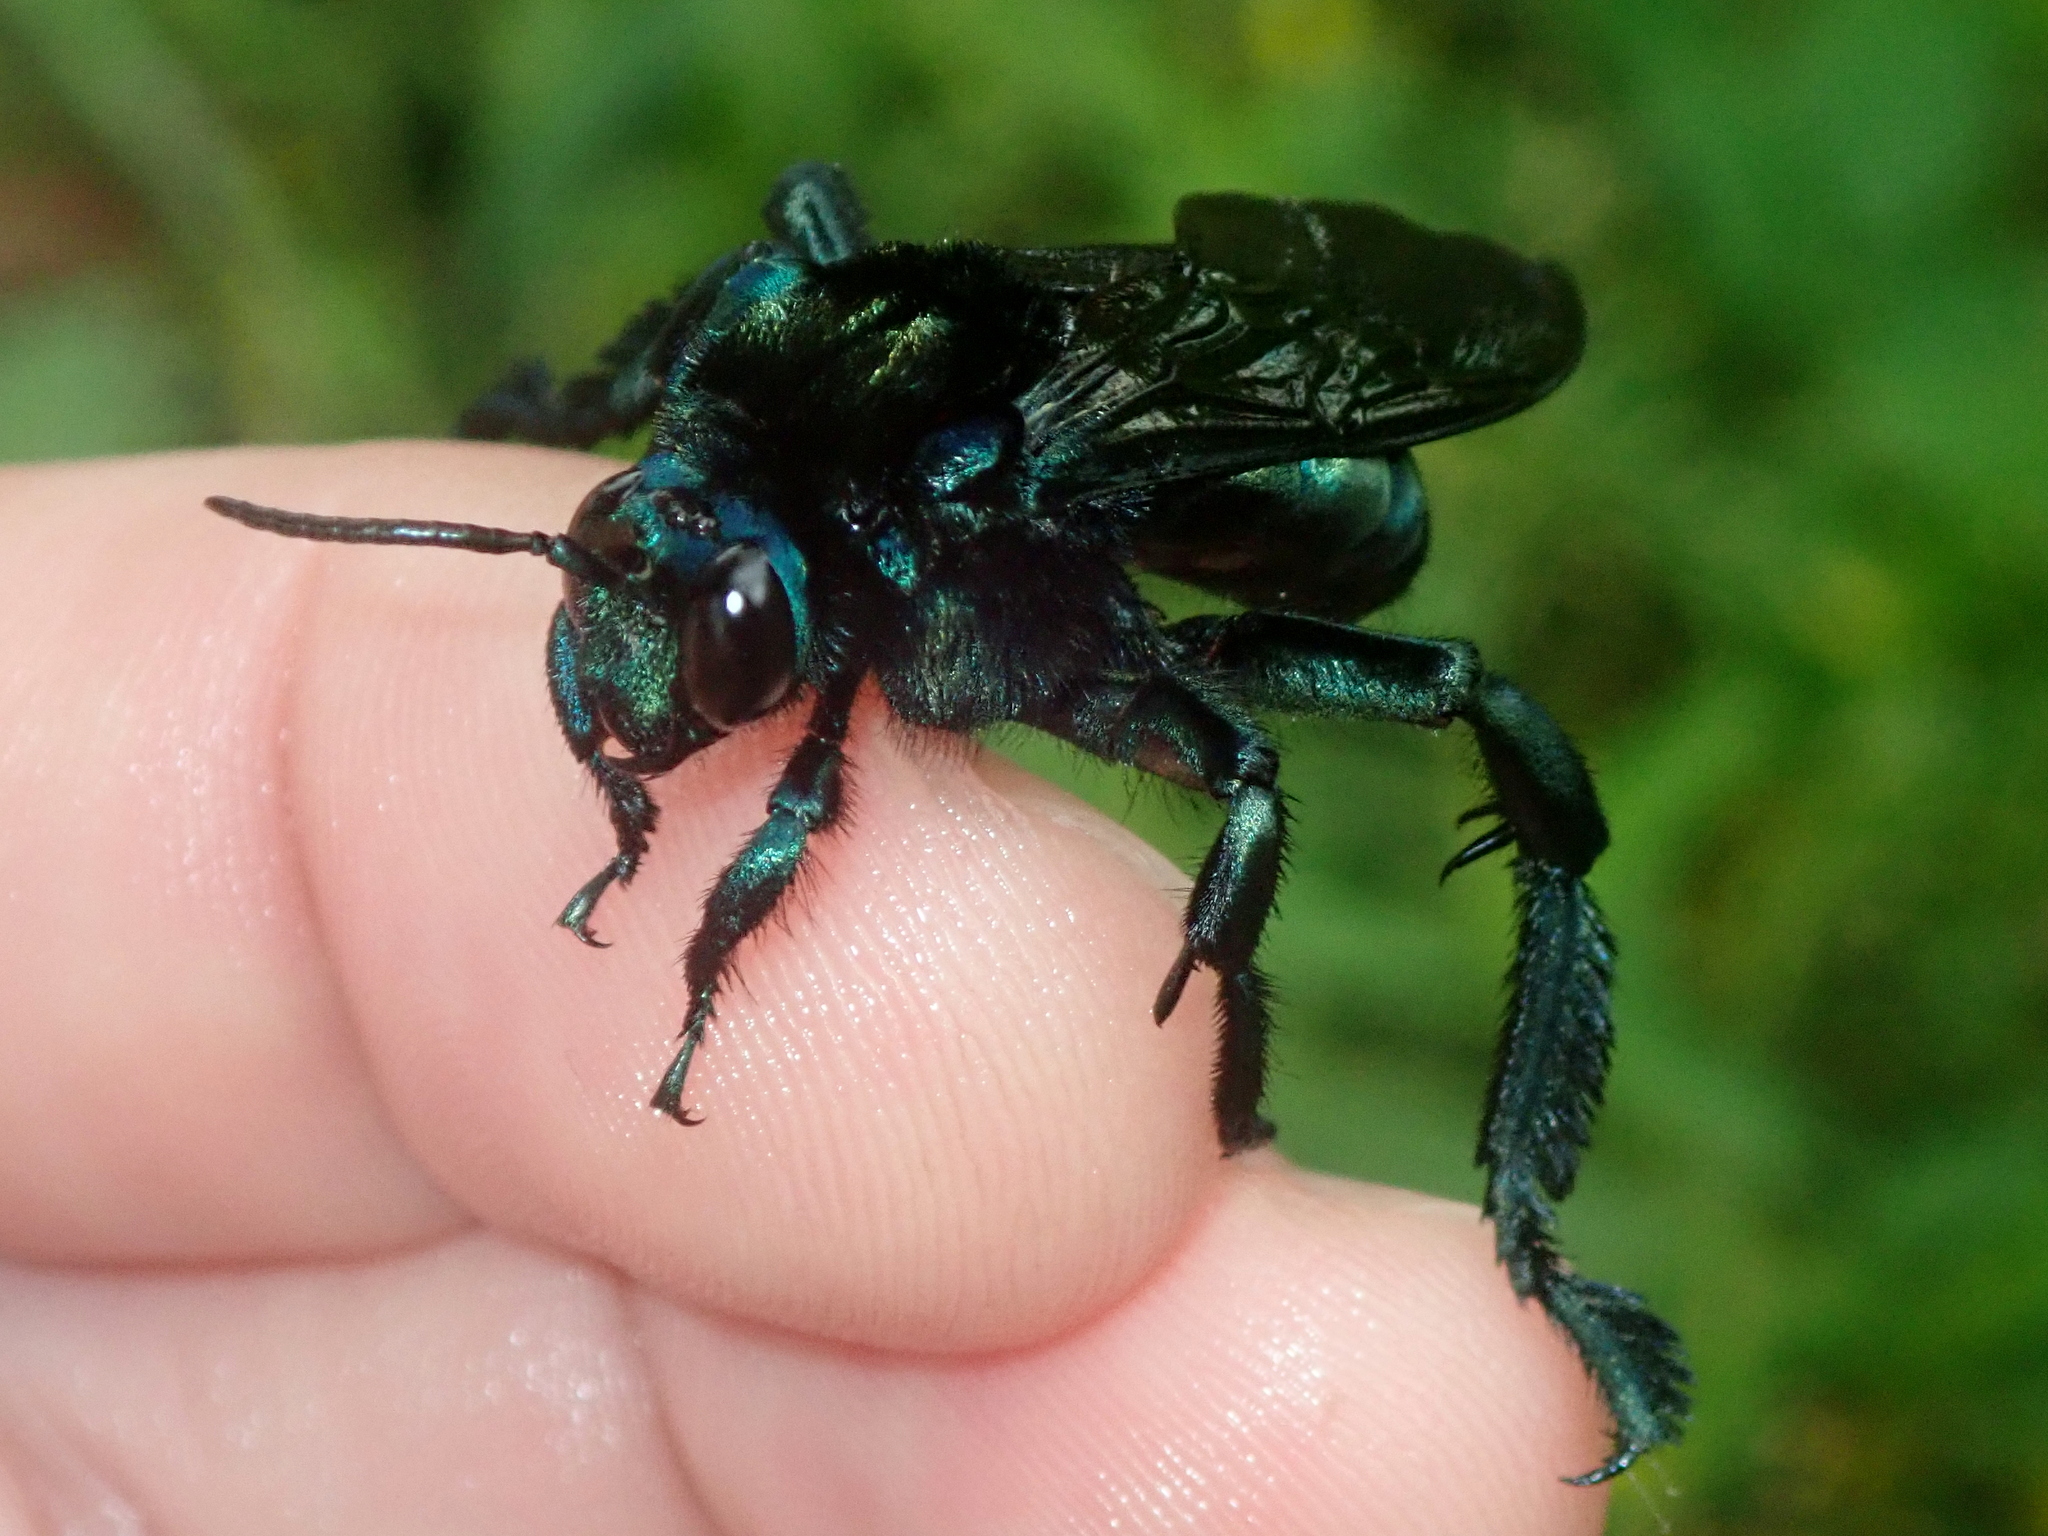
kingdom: Animalia
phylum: Arthropoda
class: Insecta
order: Hymenoptera
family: Apidae
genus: Acanthopus
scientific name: Acanthopus palmatus
